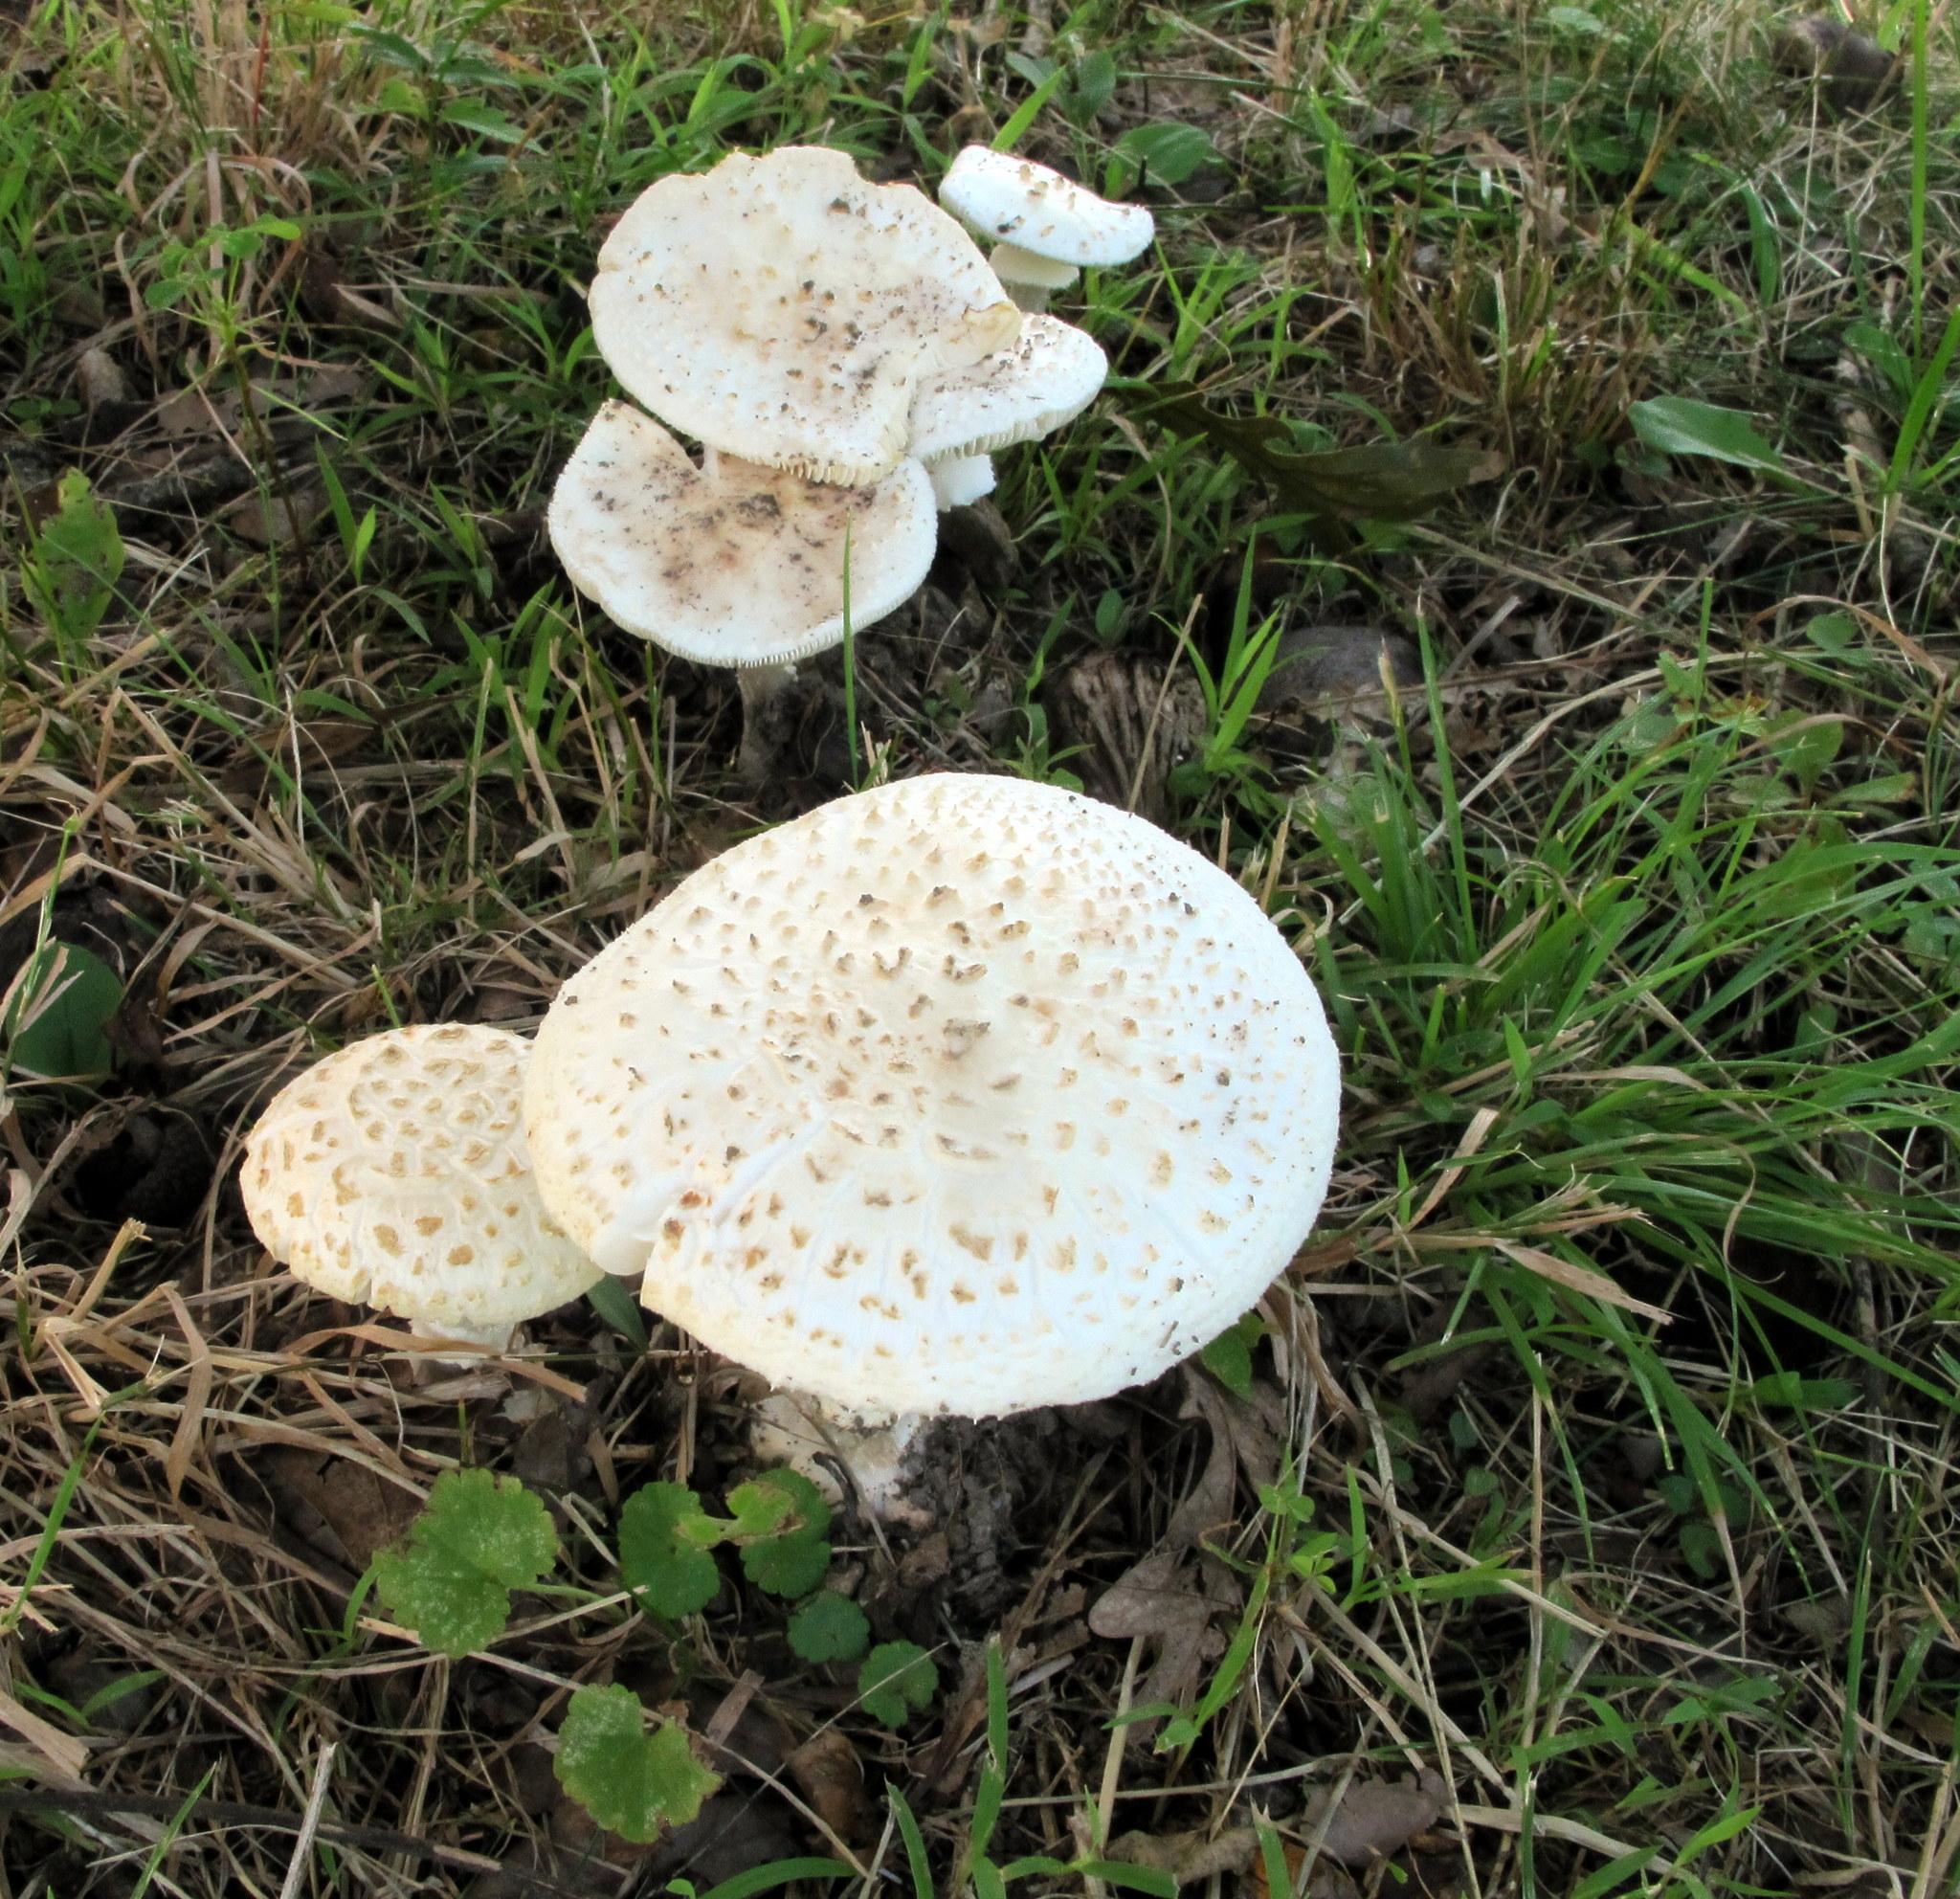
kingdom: Fungi
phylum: Basidiomycota
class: Agaricomycetes
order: Agaricales
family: Amanitaceae
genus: Amanita
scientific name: Amanita abrupta
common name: American abrupt-bulbed lepidella
